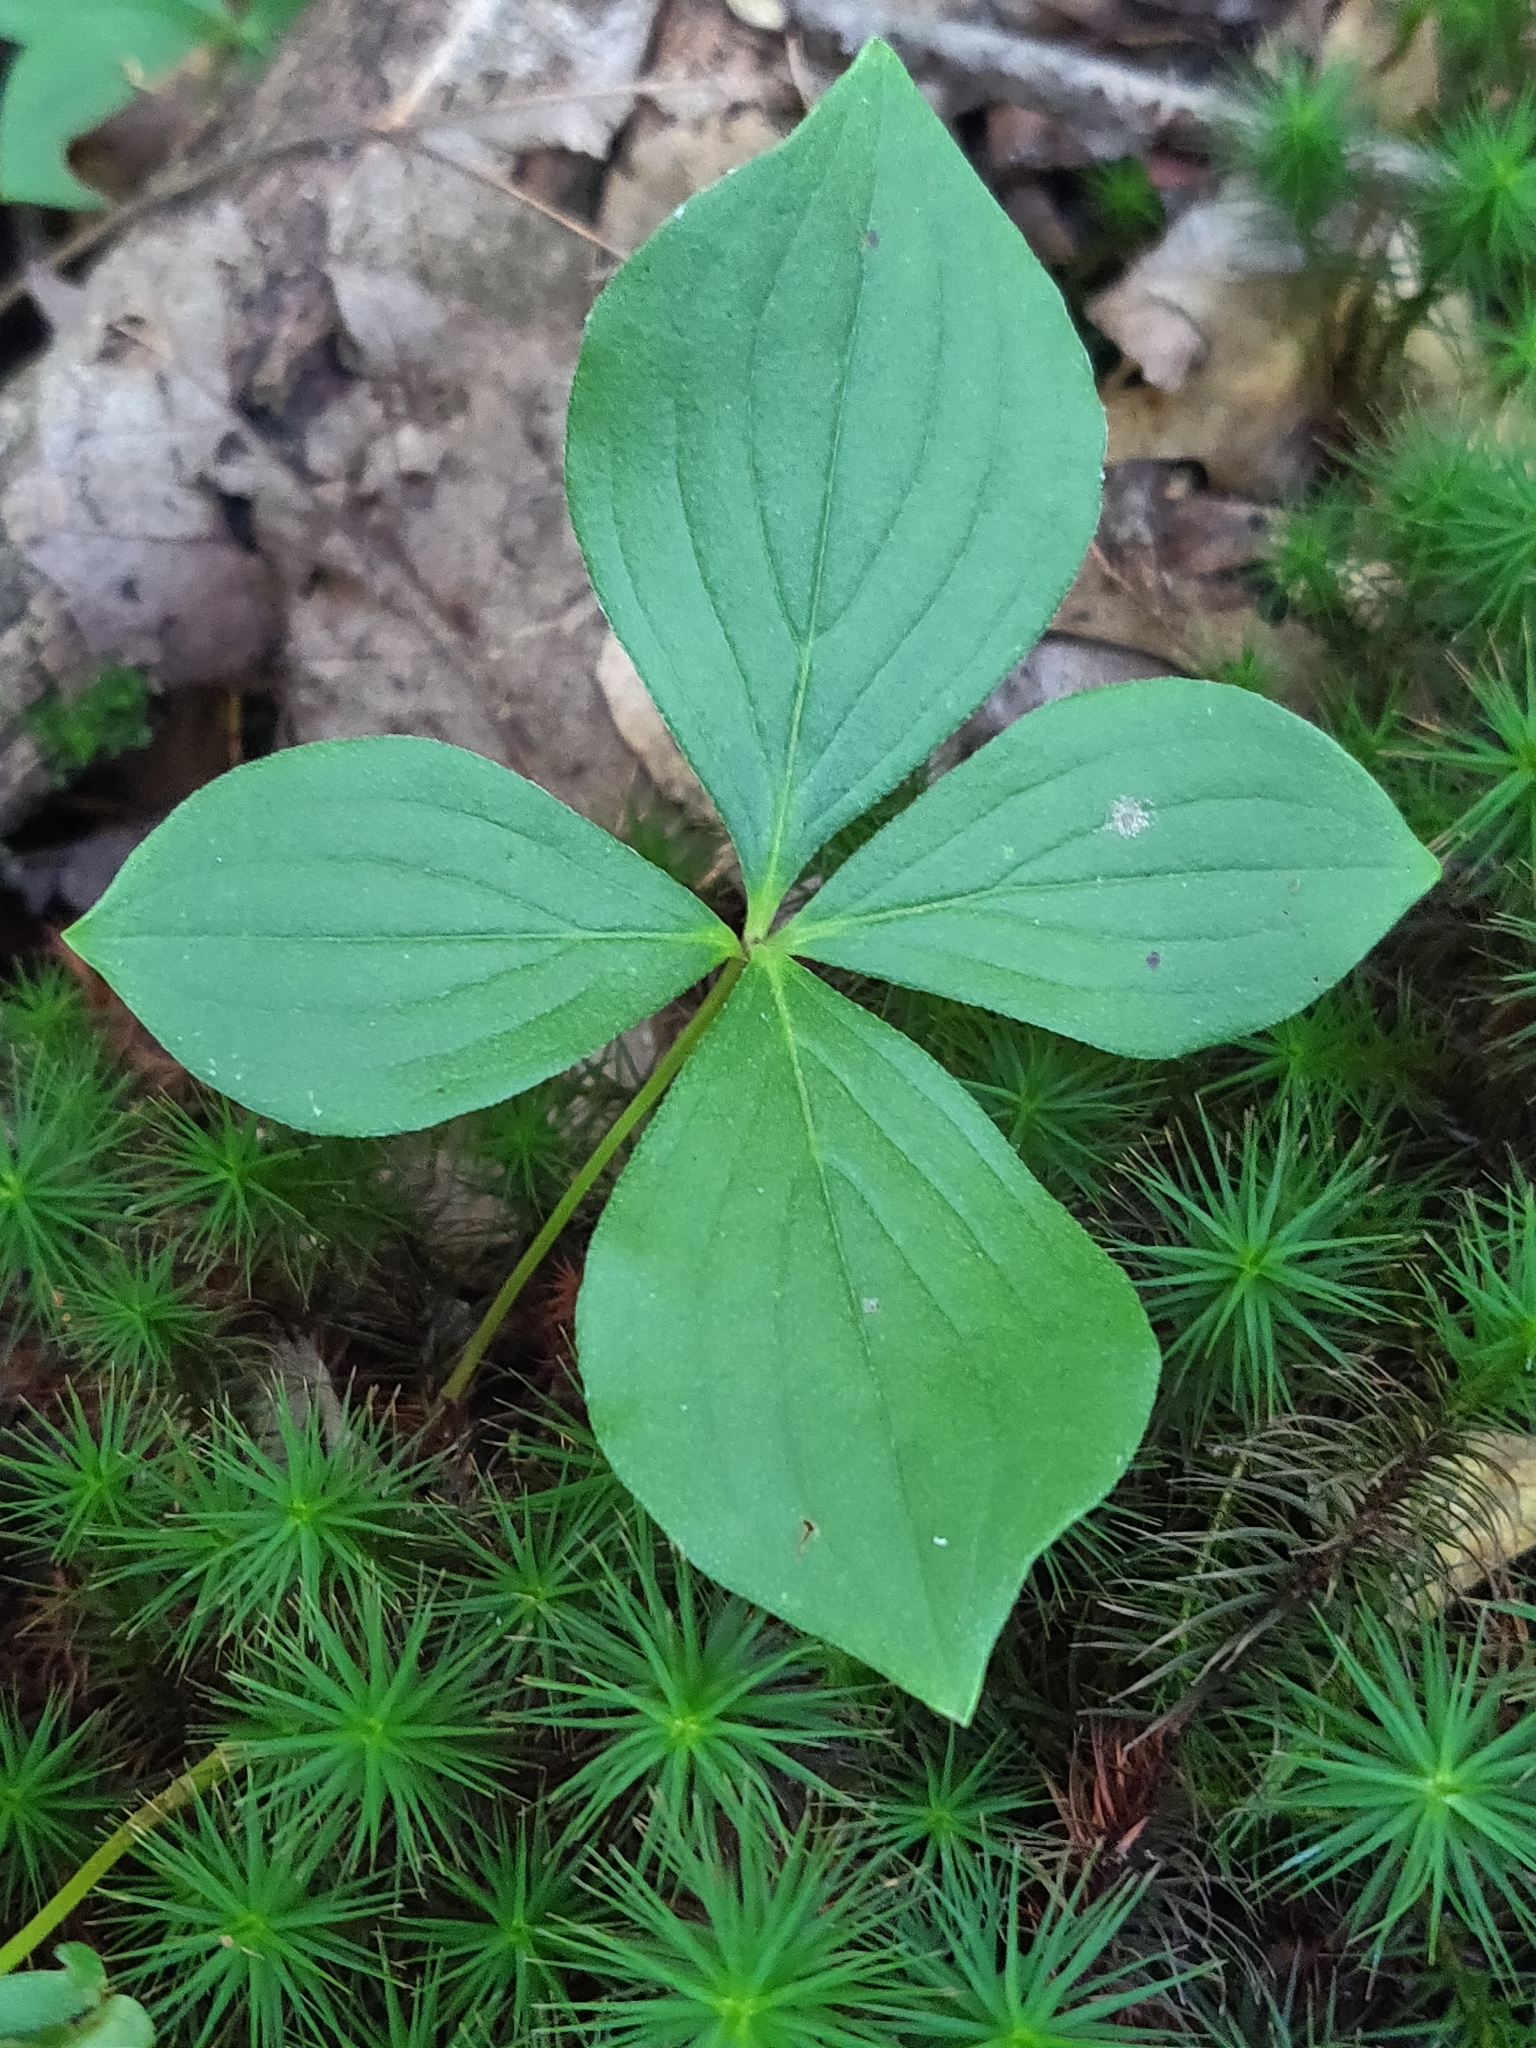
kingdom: Plantae
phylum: Tracheophyta
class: Magnoliopsida
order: Cornales
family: Cornaceae
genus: Cornus
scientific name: Cornus canadensis
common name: Creeping dogwood
